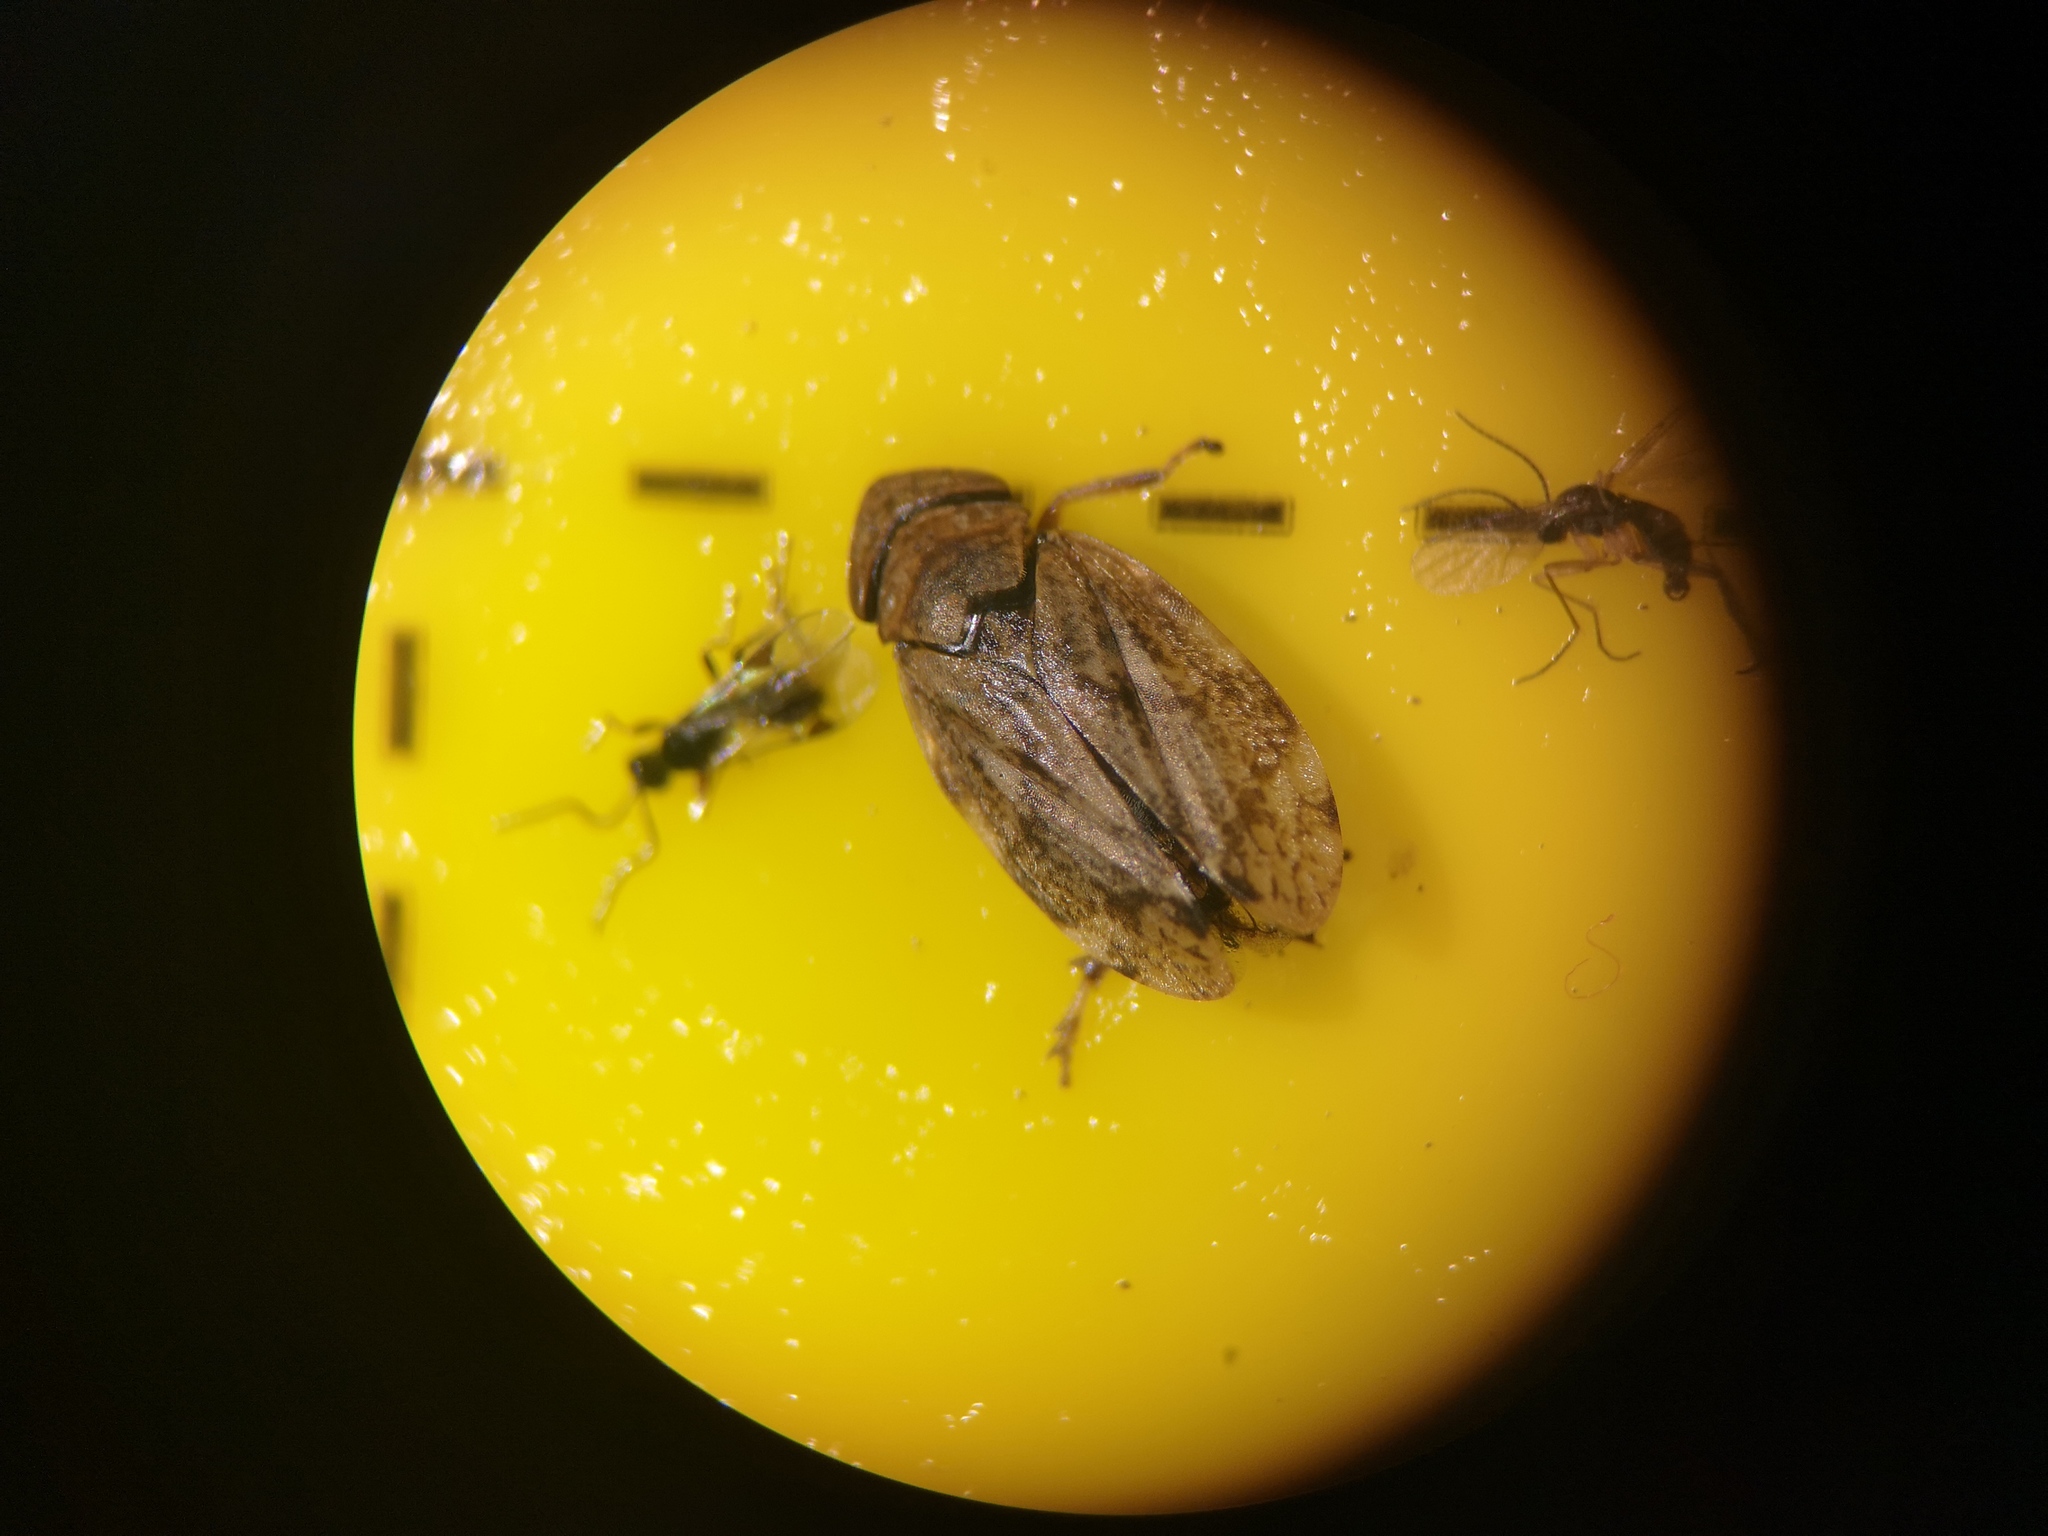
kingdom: Animalia
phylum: Arthropoda
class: Insecta
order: Hemiptera
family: Aphrophoridae
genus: Philaenus
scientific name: Philaenus spumarius
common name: Meadow spittlebug
